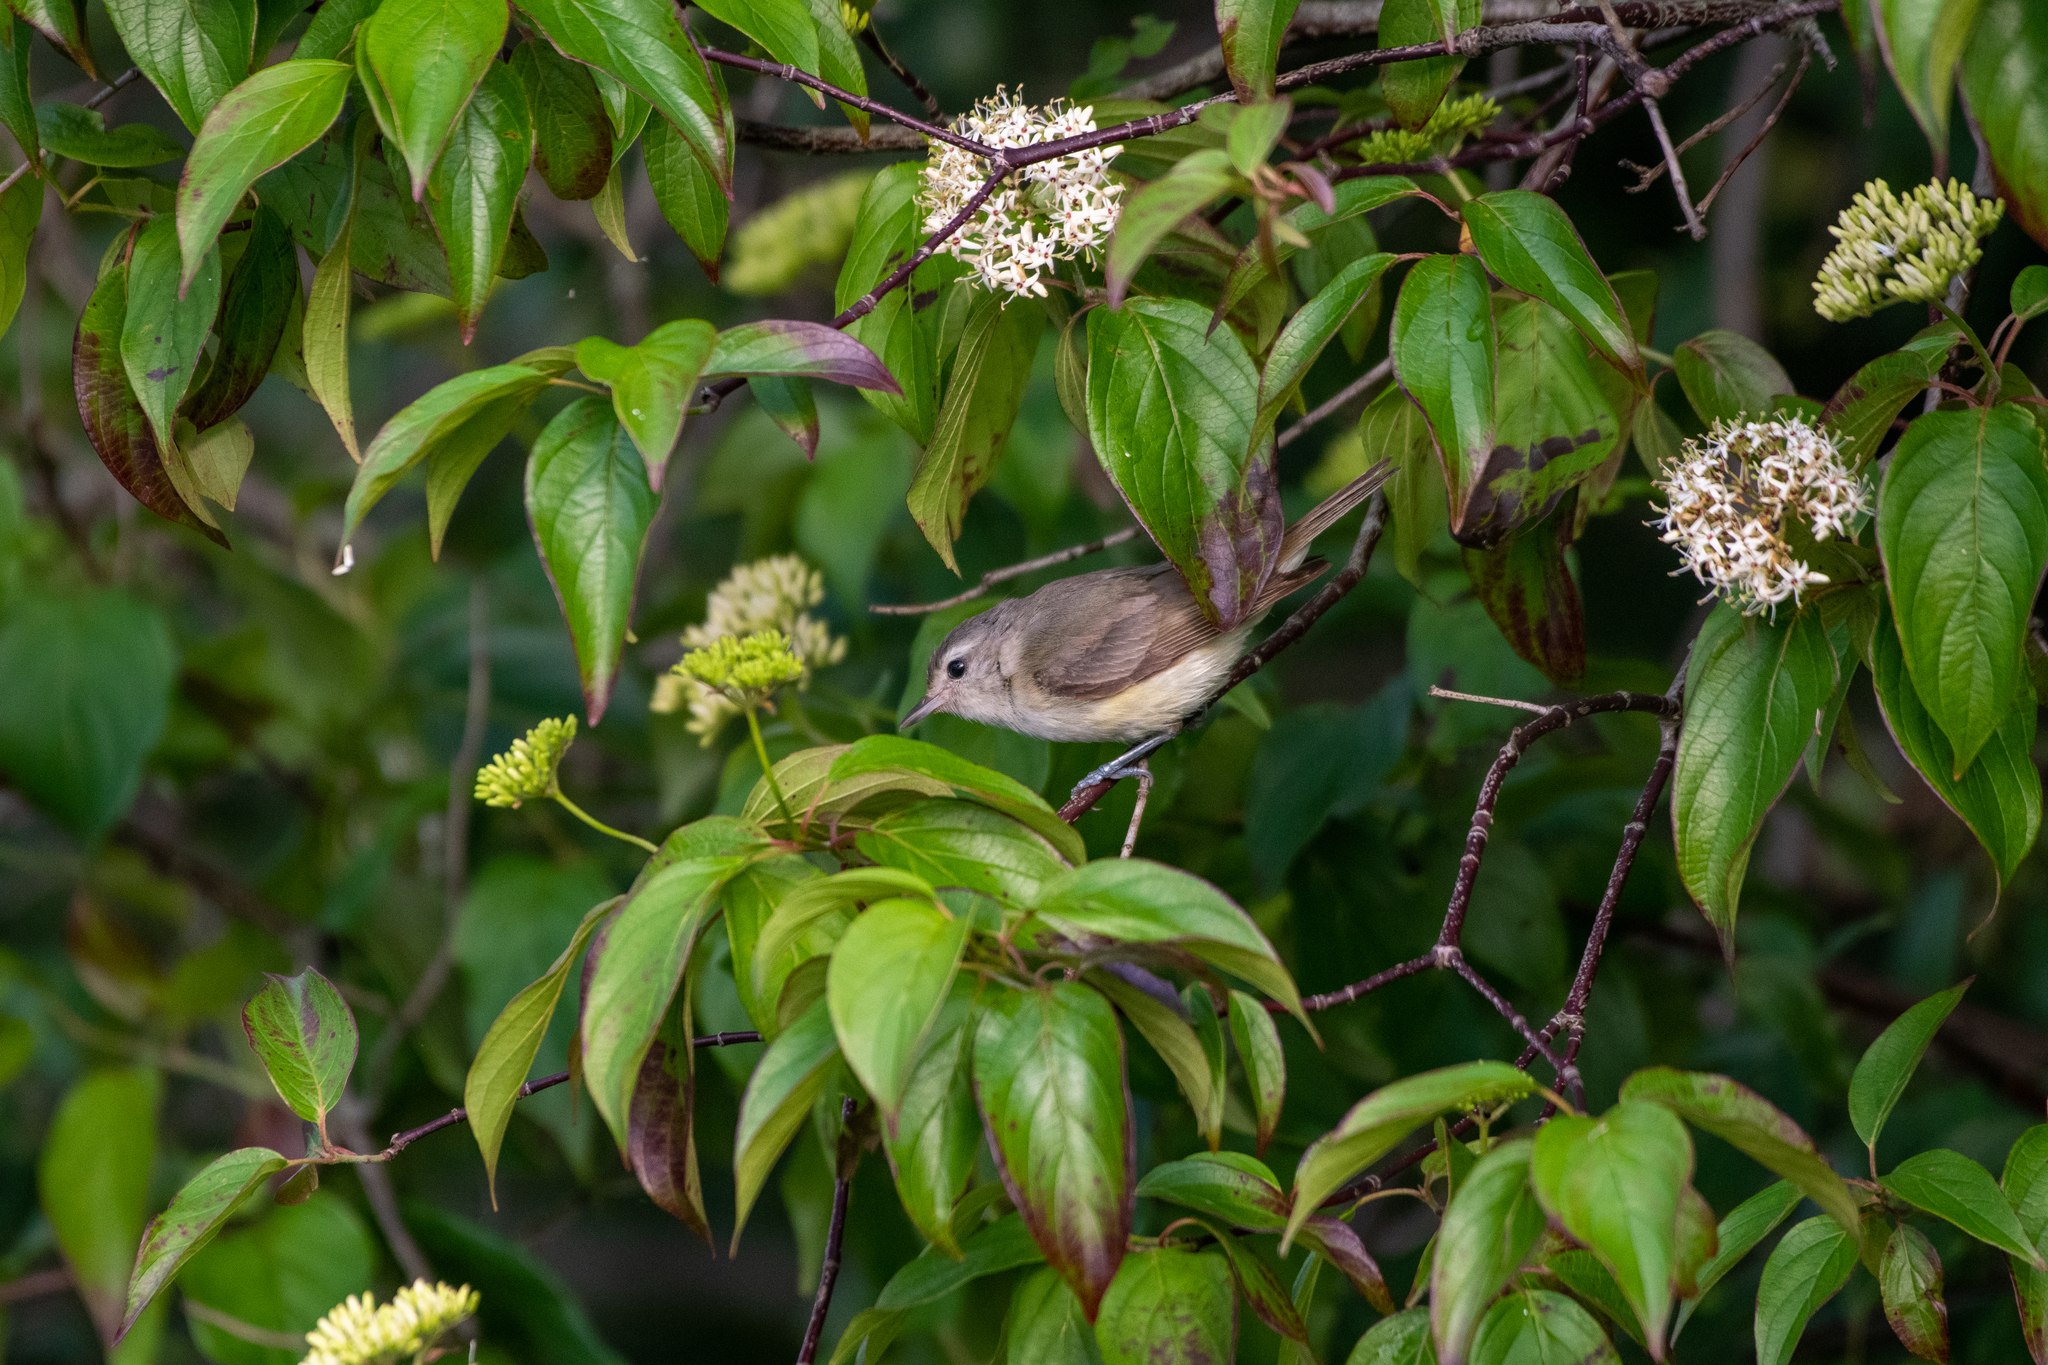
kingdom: Animalia
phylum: Chordata
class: Aves
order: Passeriformes
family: Vireonidae
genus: Vireo
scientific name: Vireo gilvus
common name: Warbling vireo
